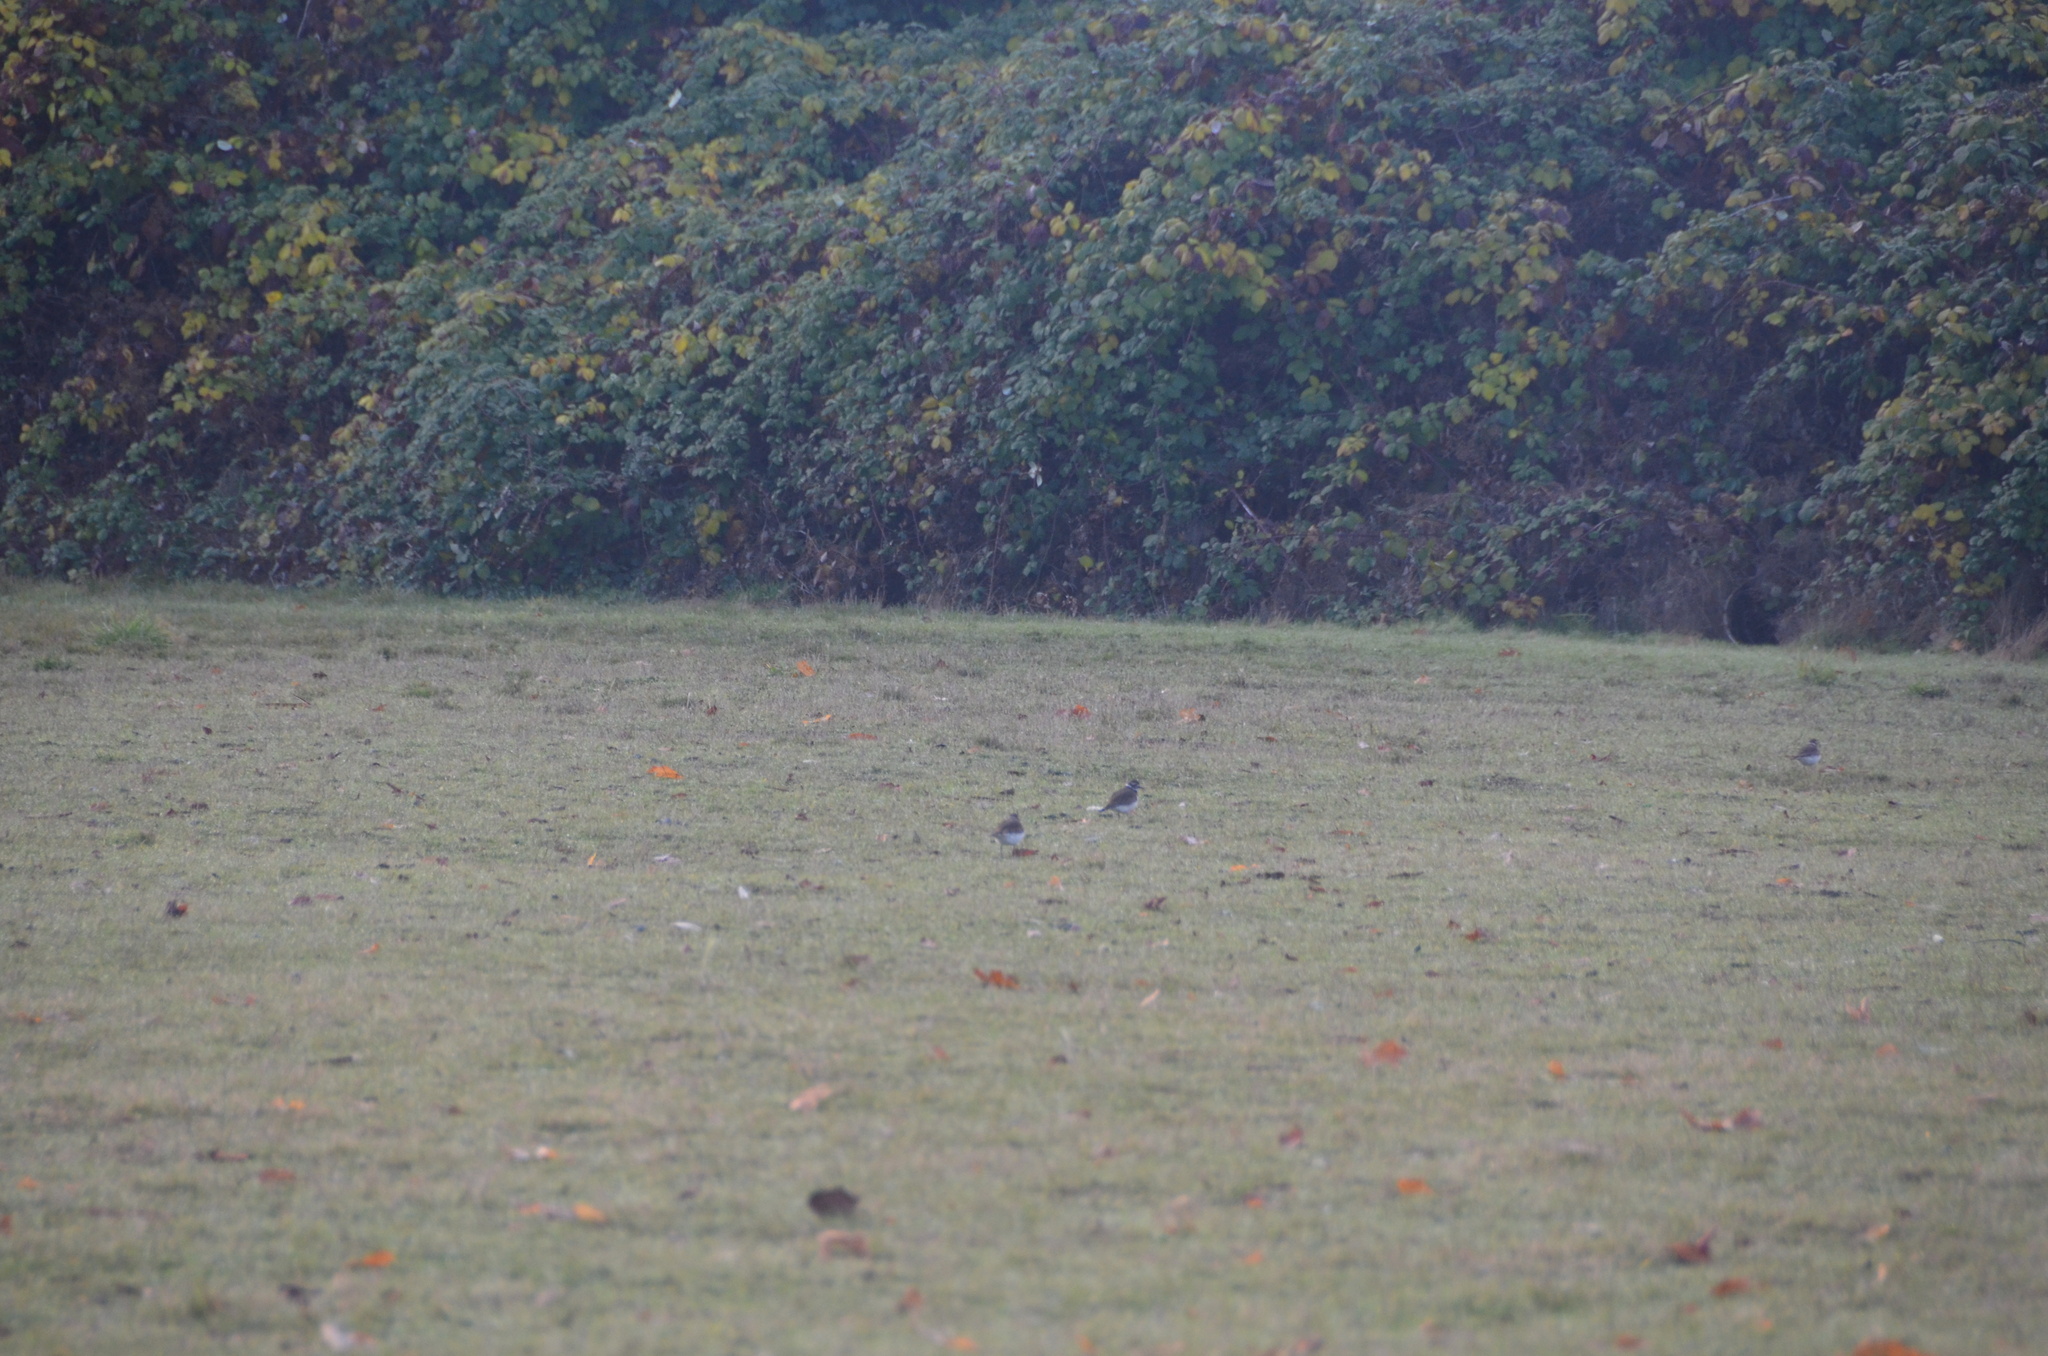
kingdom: Animalia
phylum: Chordata
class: Aves
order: Charadriiformes
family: Charadriidae
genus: Charadrius
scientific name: Charadrius vociferus
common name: Killdeer
